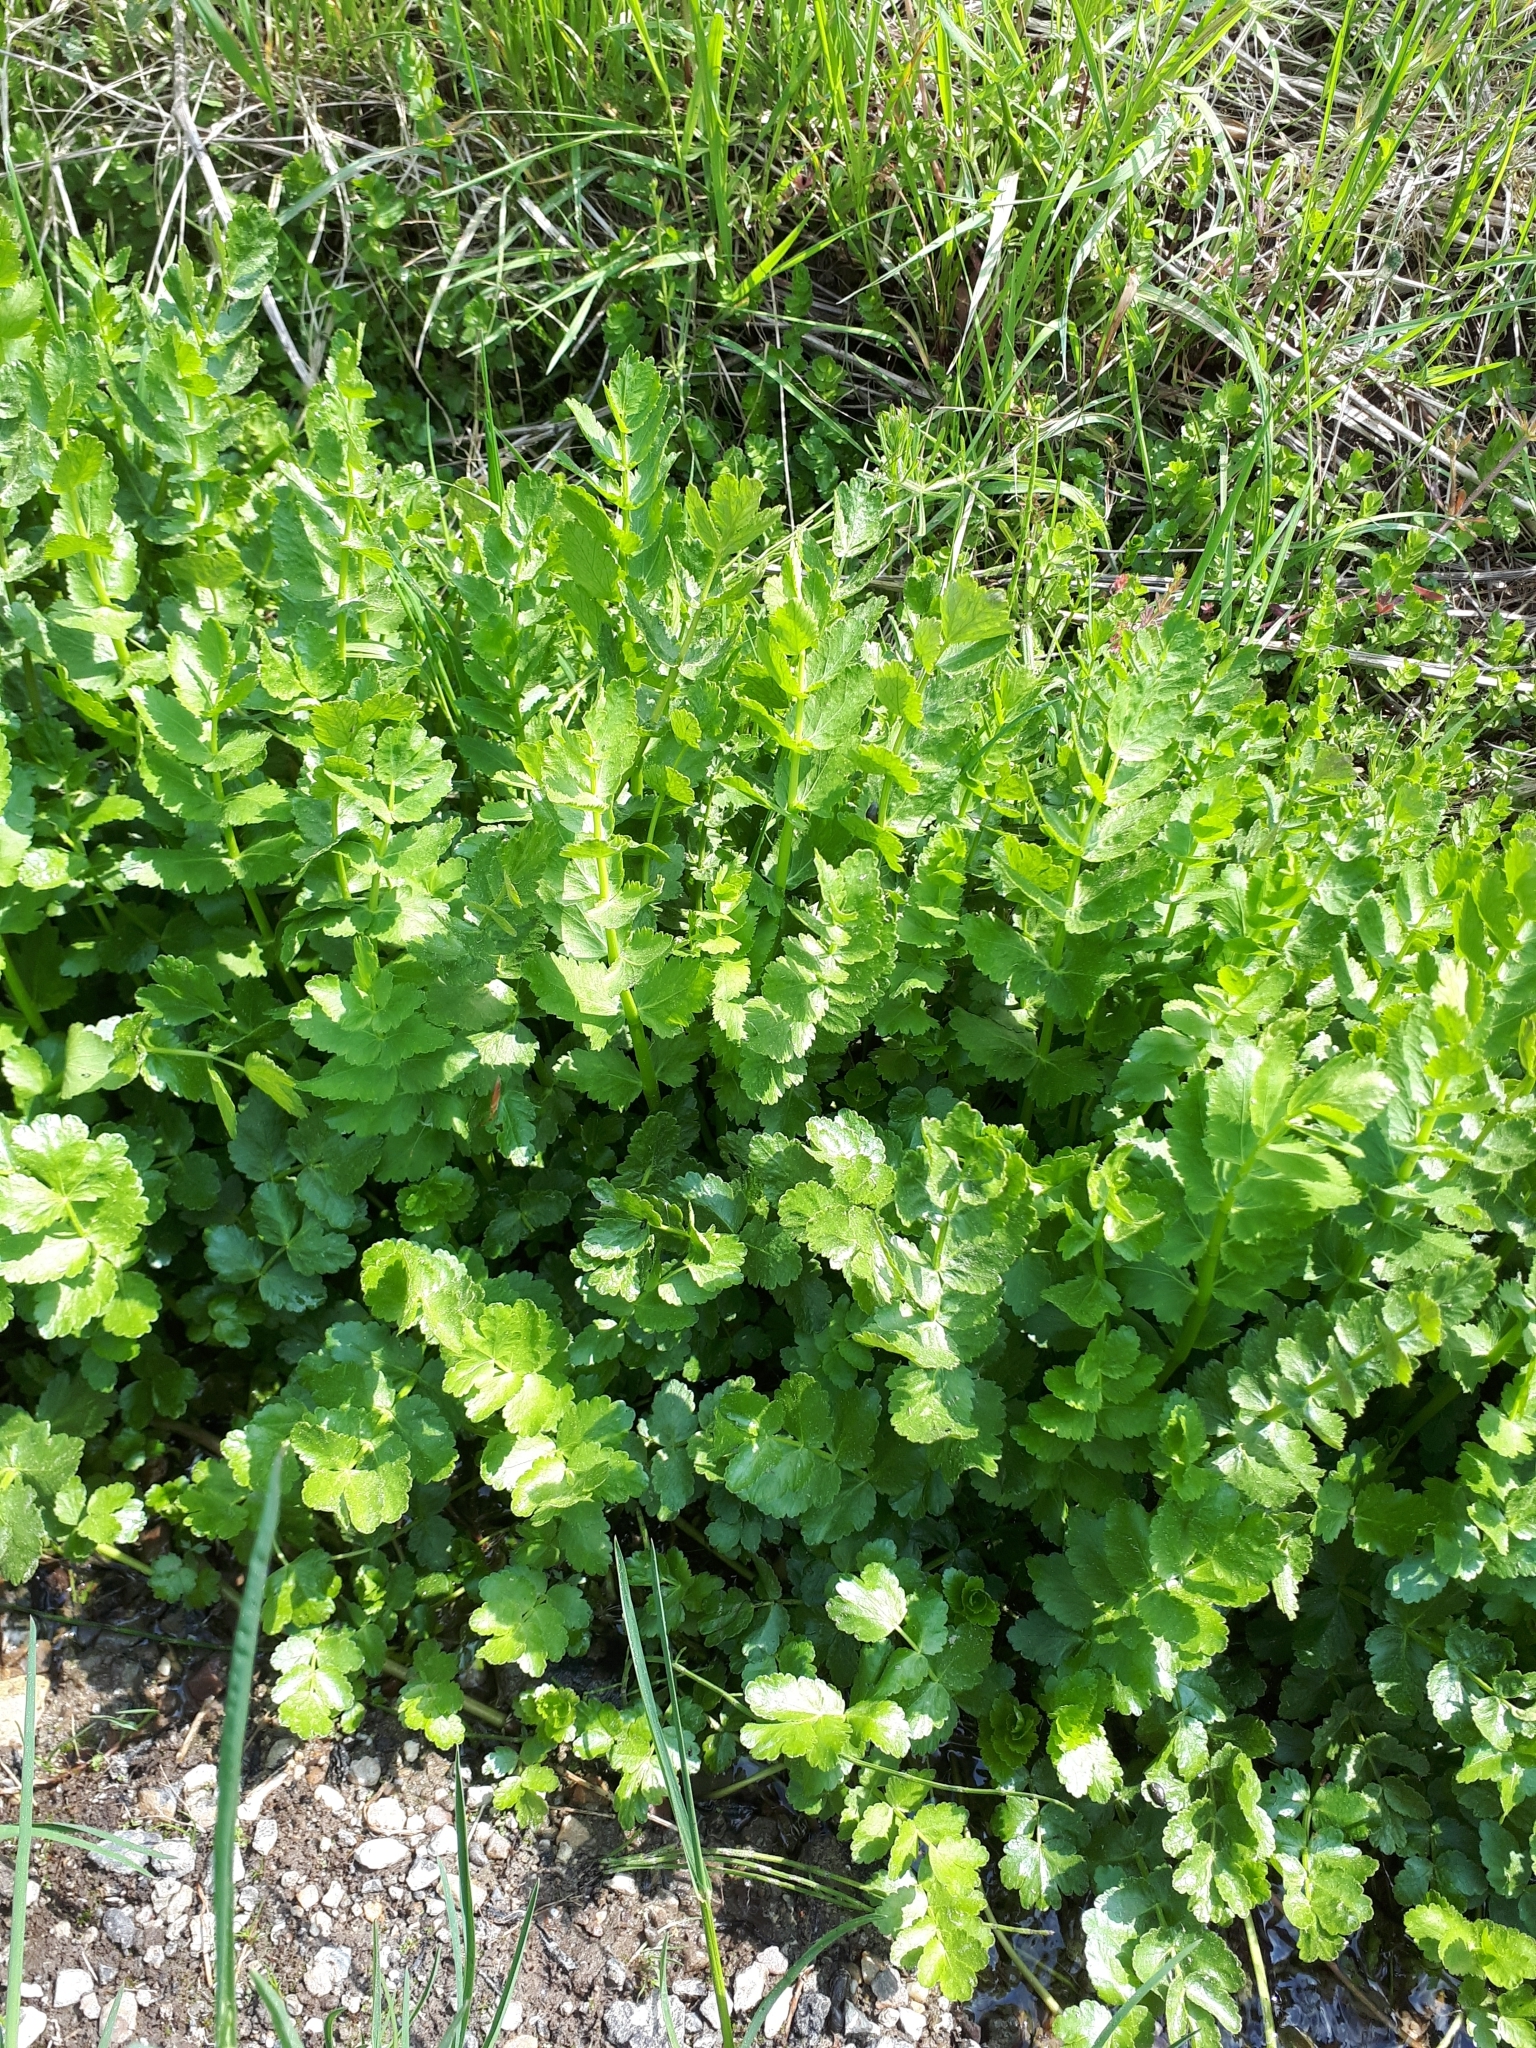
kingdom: Plantae
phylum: Tracheophyta
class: Magnoliopsida
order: Apiales
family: Apiaceae
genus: Berula
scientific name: Berula erecta
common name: Lesser water-parsnip
